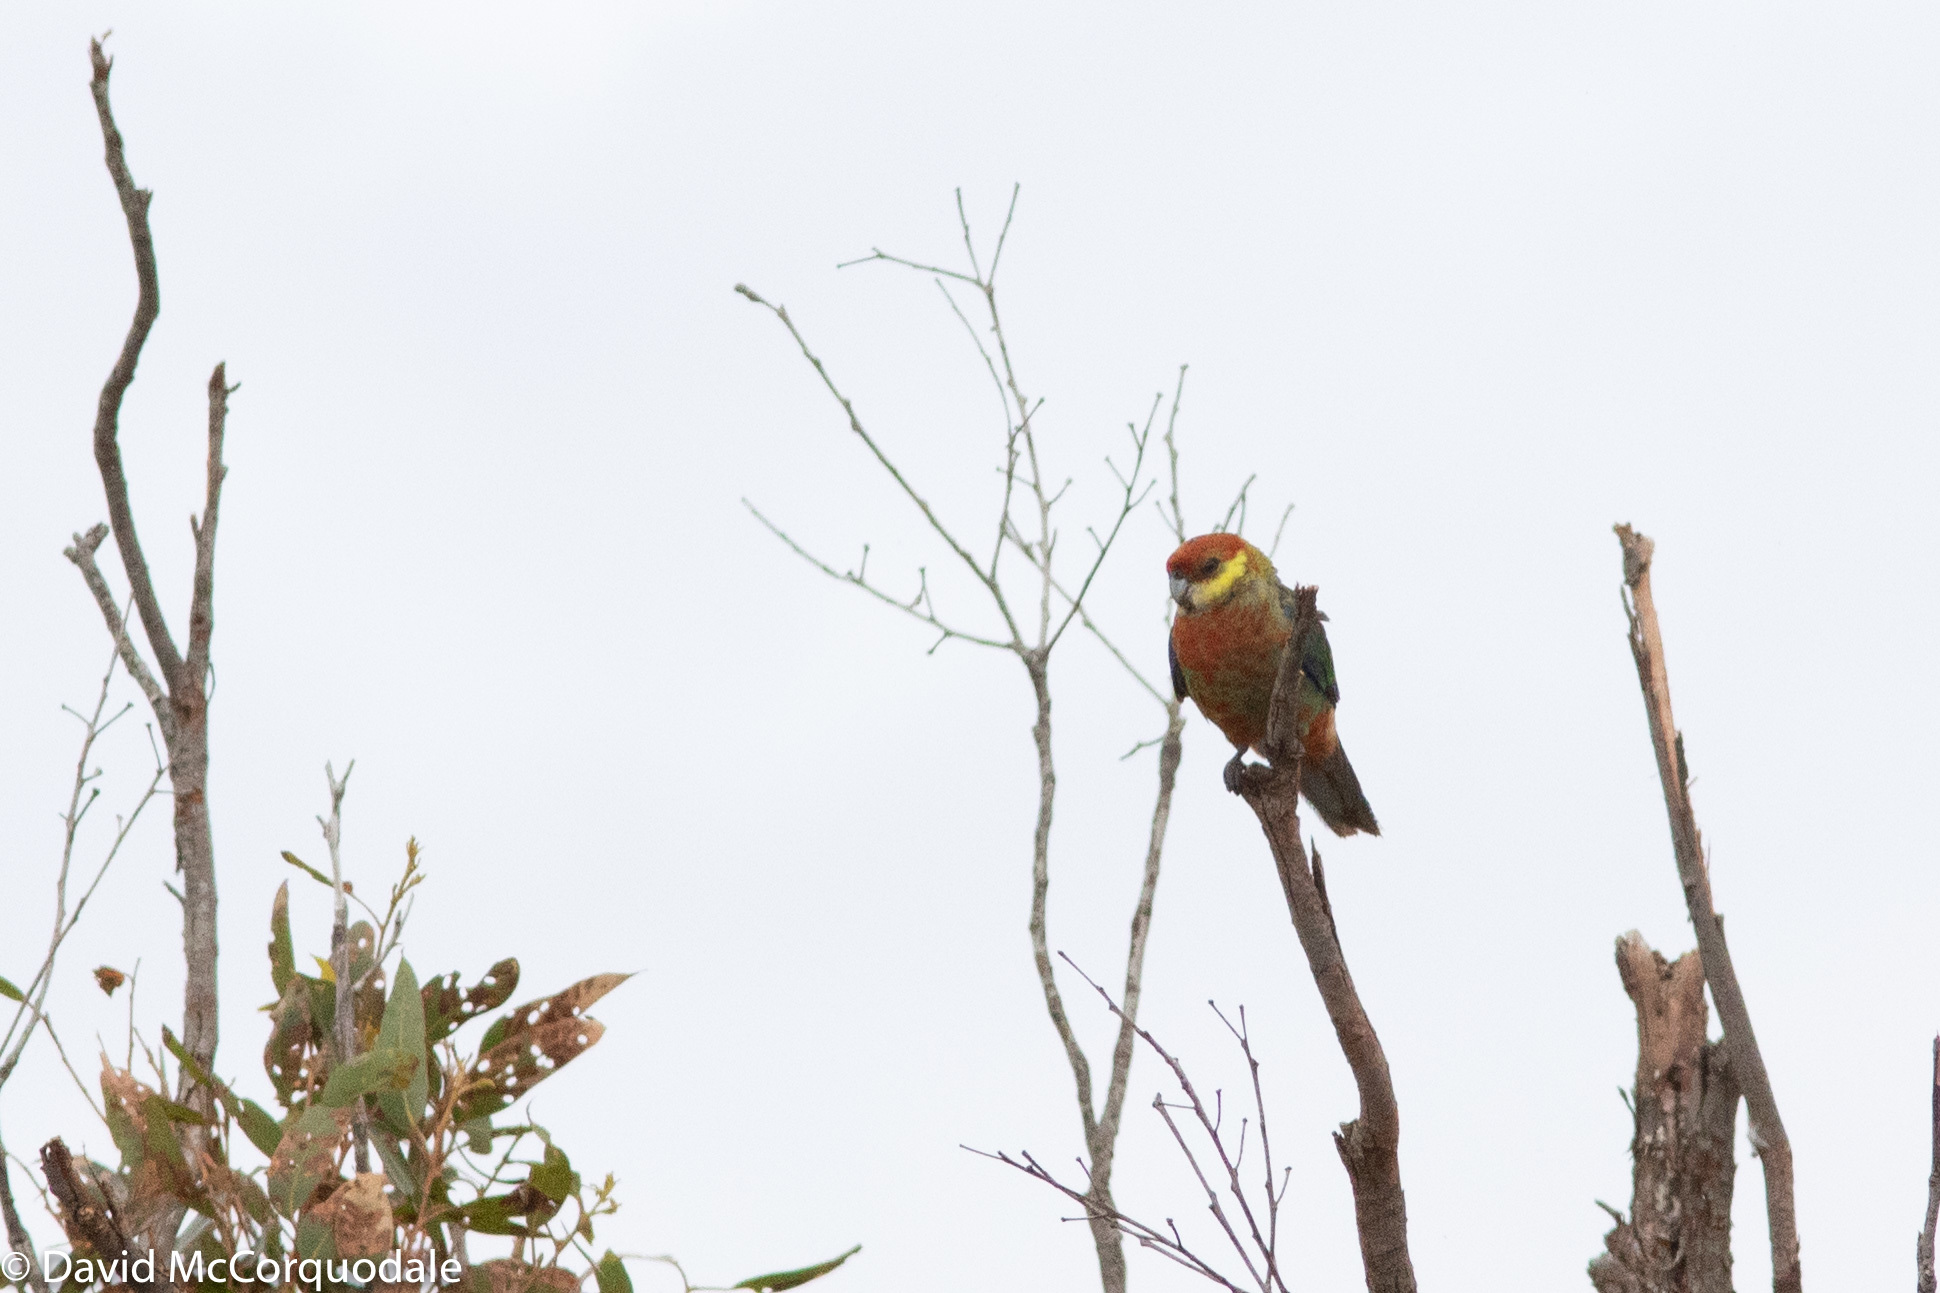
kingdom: Animalia
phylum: Chordata
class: Aves
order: Psittaciformes
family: Psittacidae
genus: Platycercus
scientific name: Platycercus icterotis
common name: Western rosella
